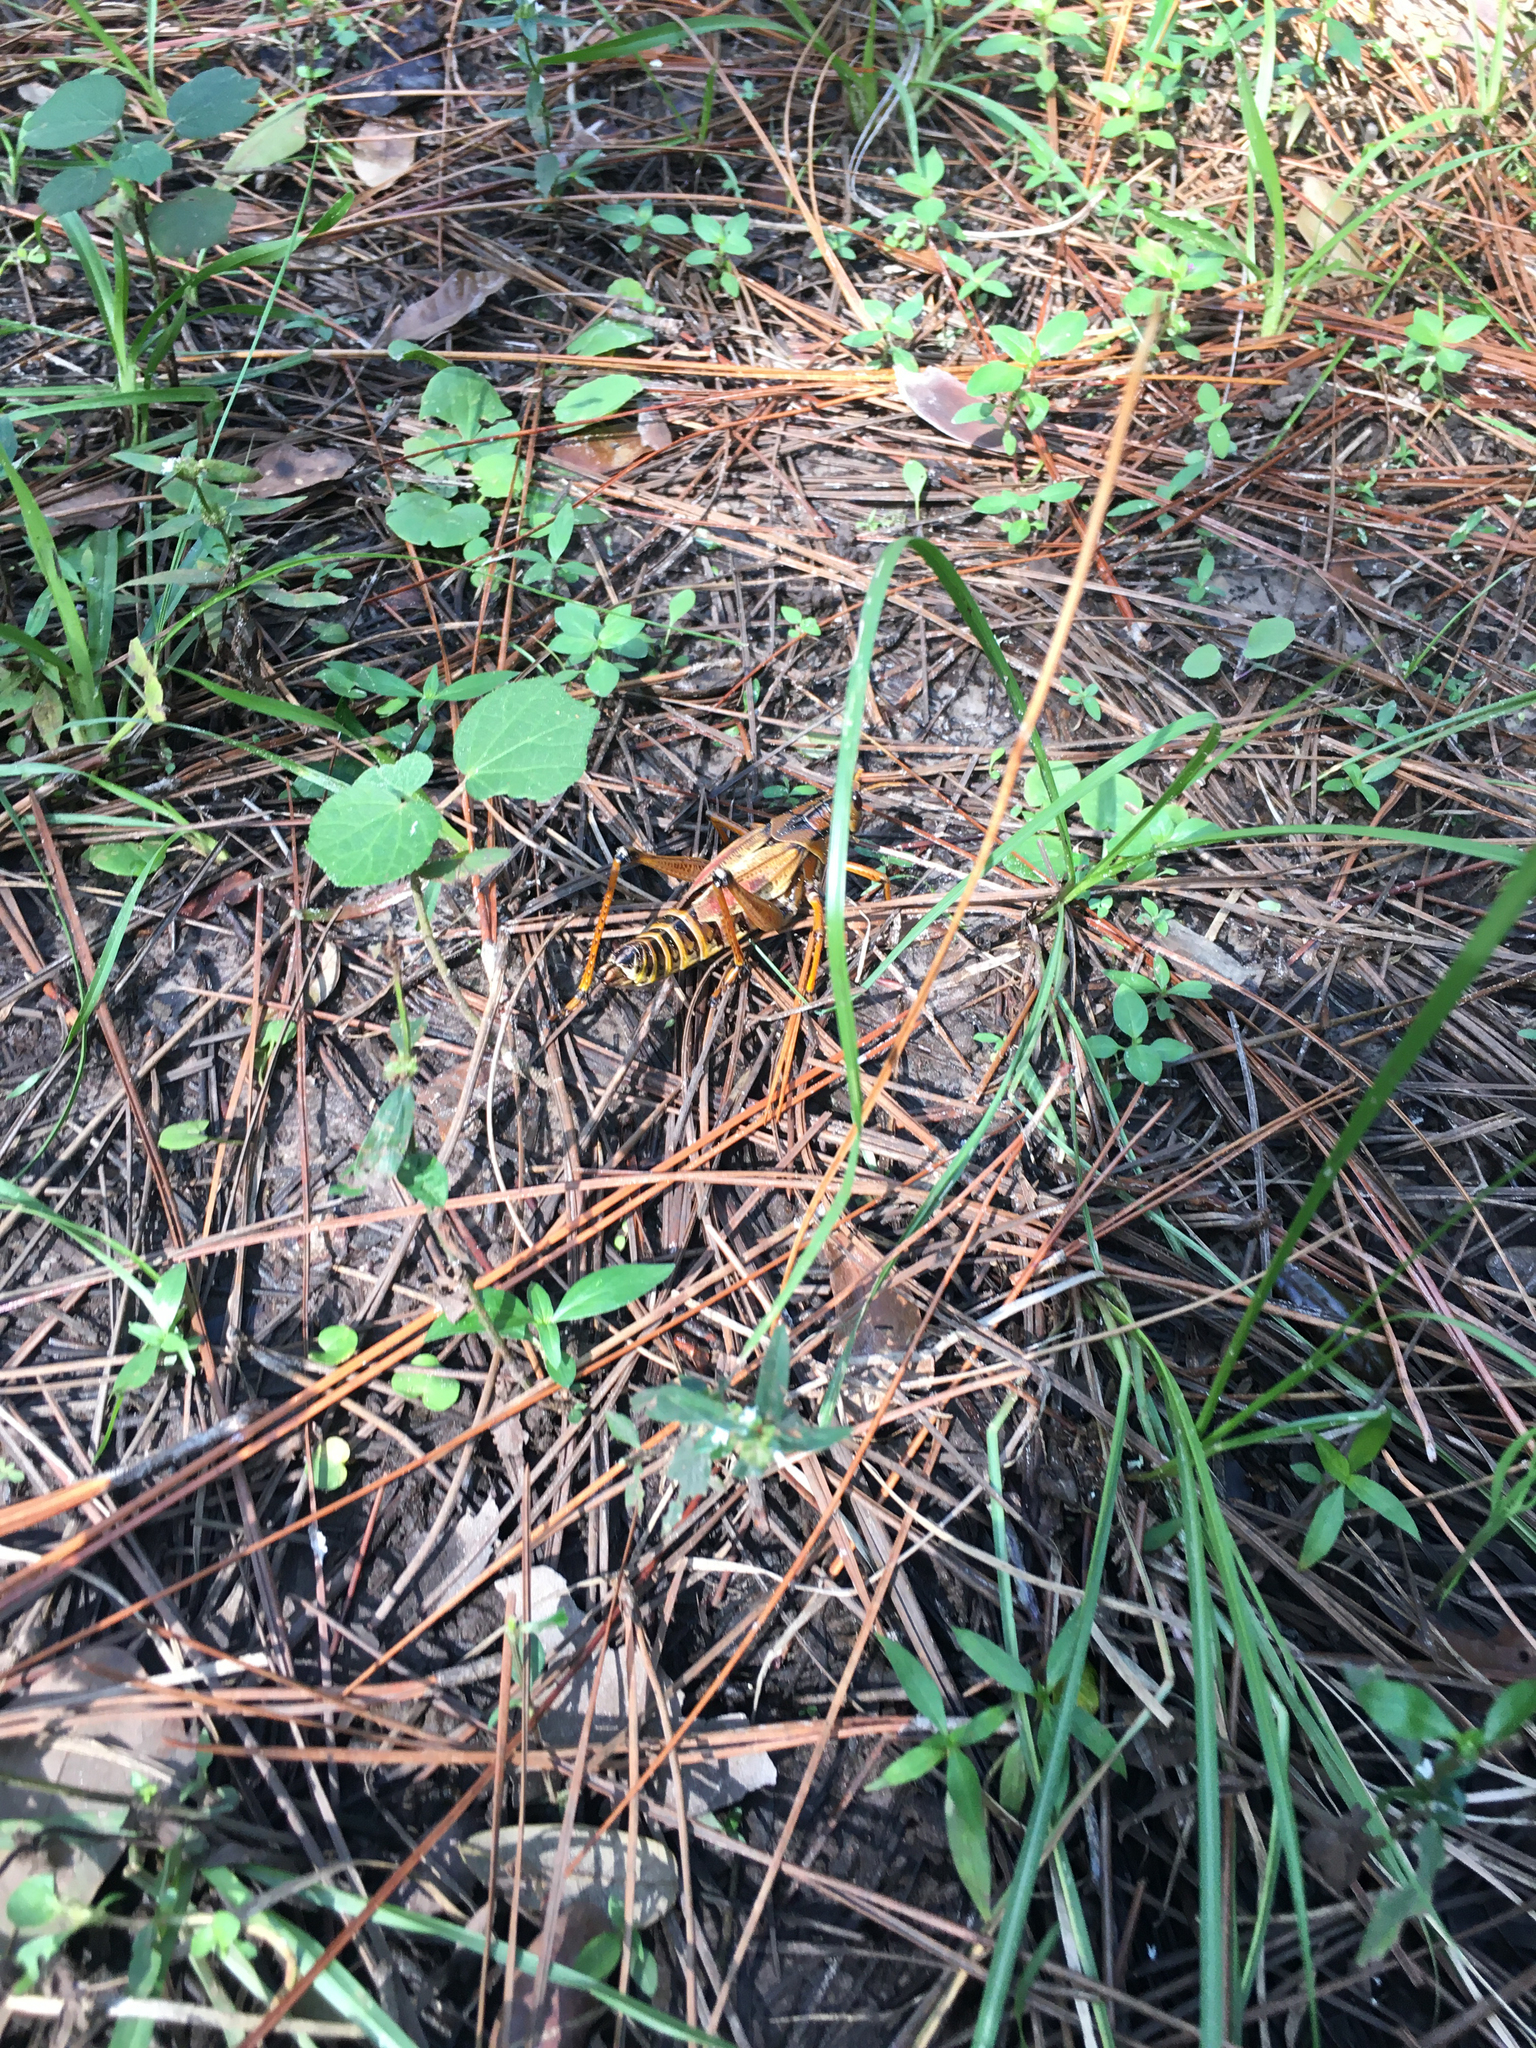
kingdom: Animalia
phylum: Arthropoda
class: Insecta
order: Orthoptera
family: Romaleidae
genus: Romalea
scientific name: Romalea microptera
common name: Eastern lubber grasshopper
